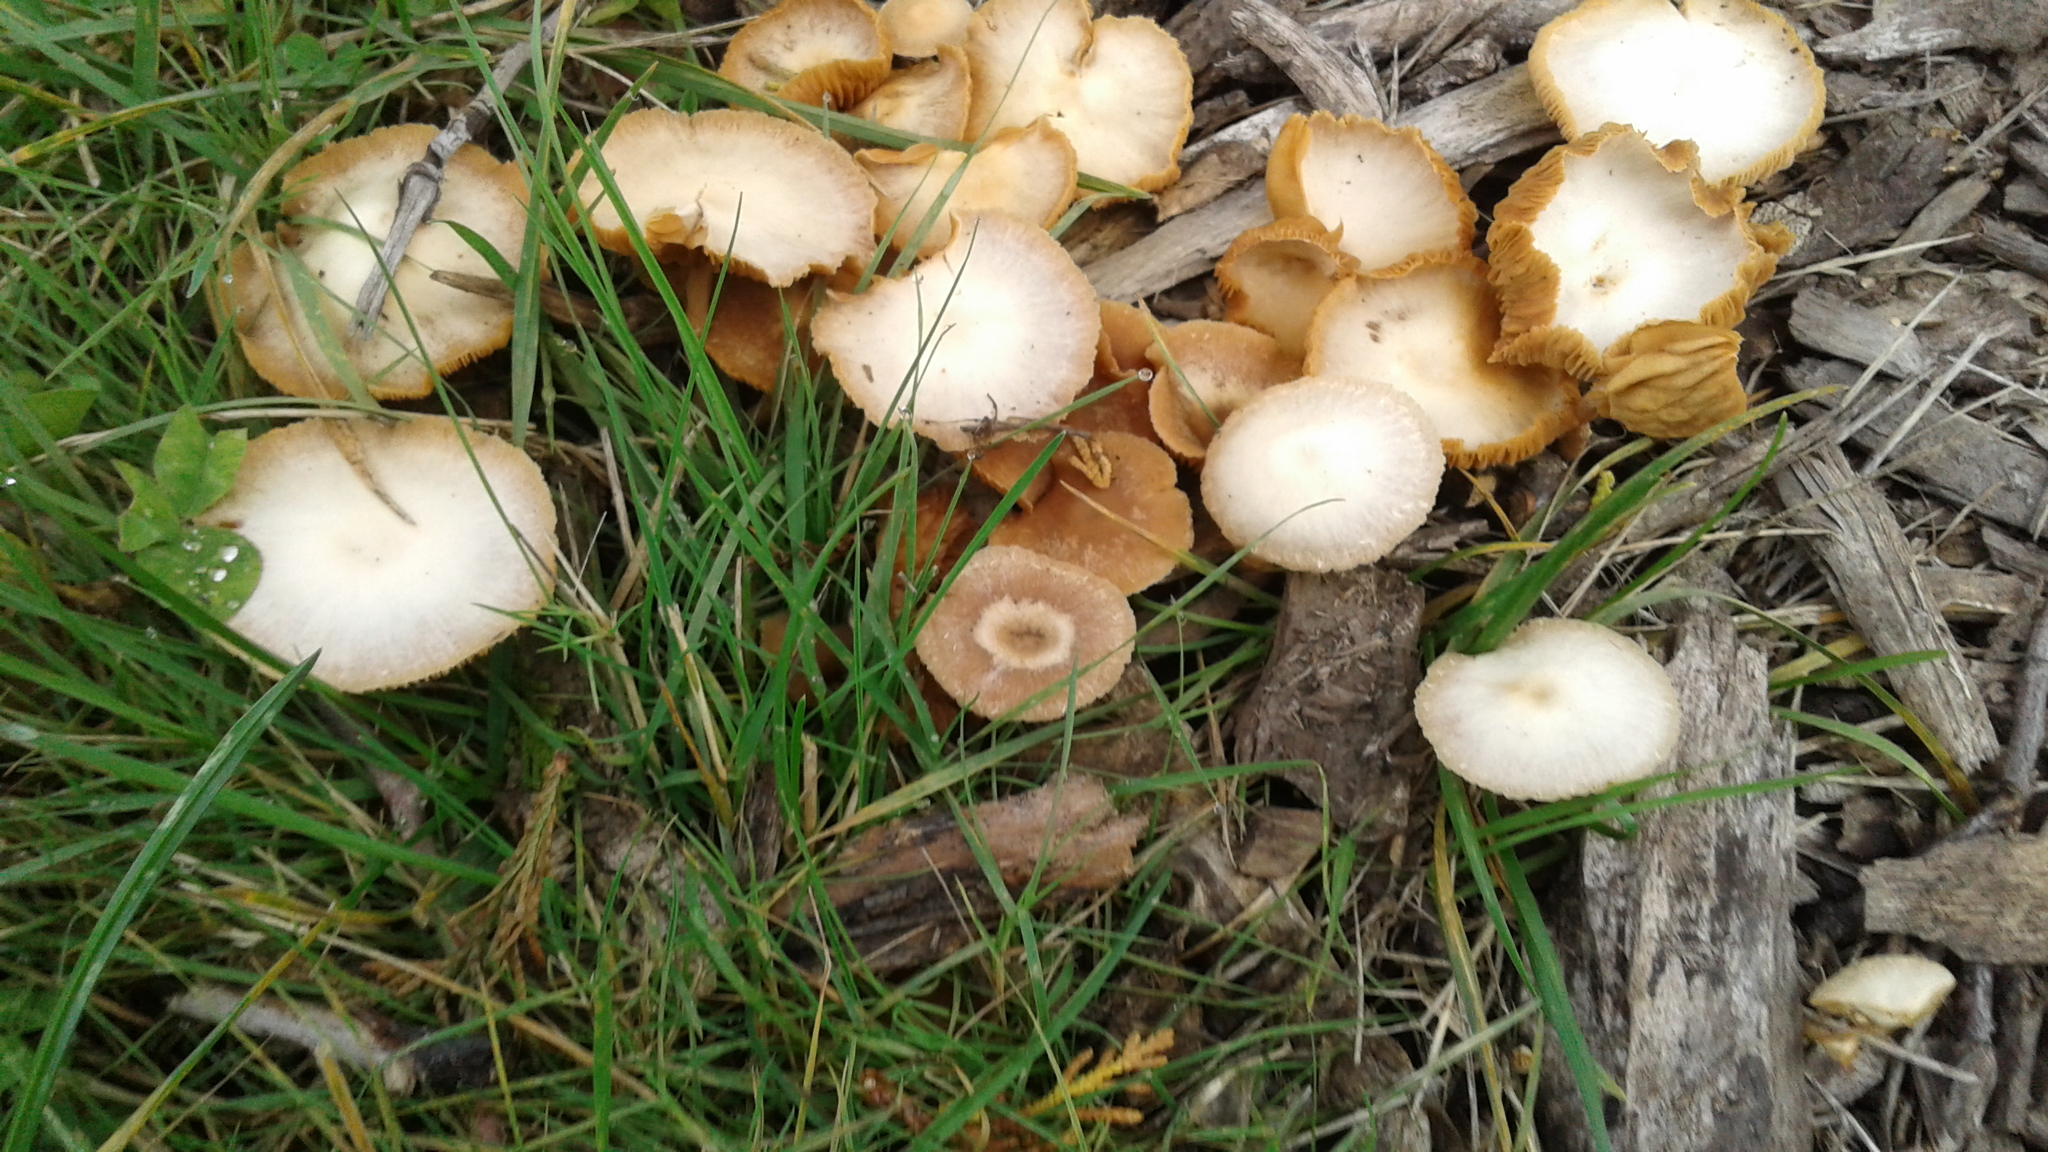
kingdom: Fungi
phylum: Basidiomycota
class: Agaricomycetes
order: Agaricales
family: Tubariaceae
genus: Tubaria
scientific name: Tubaria furfuracea
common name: Scurfy twiglet
